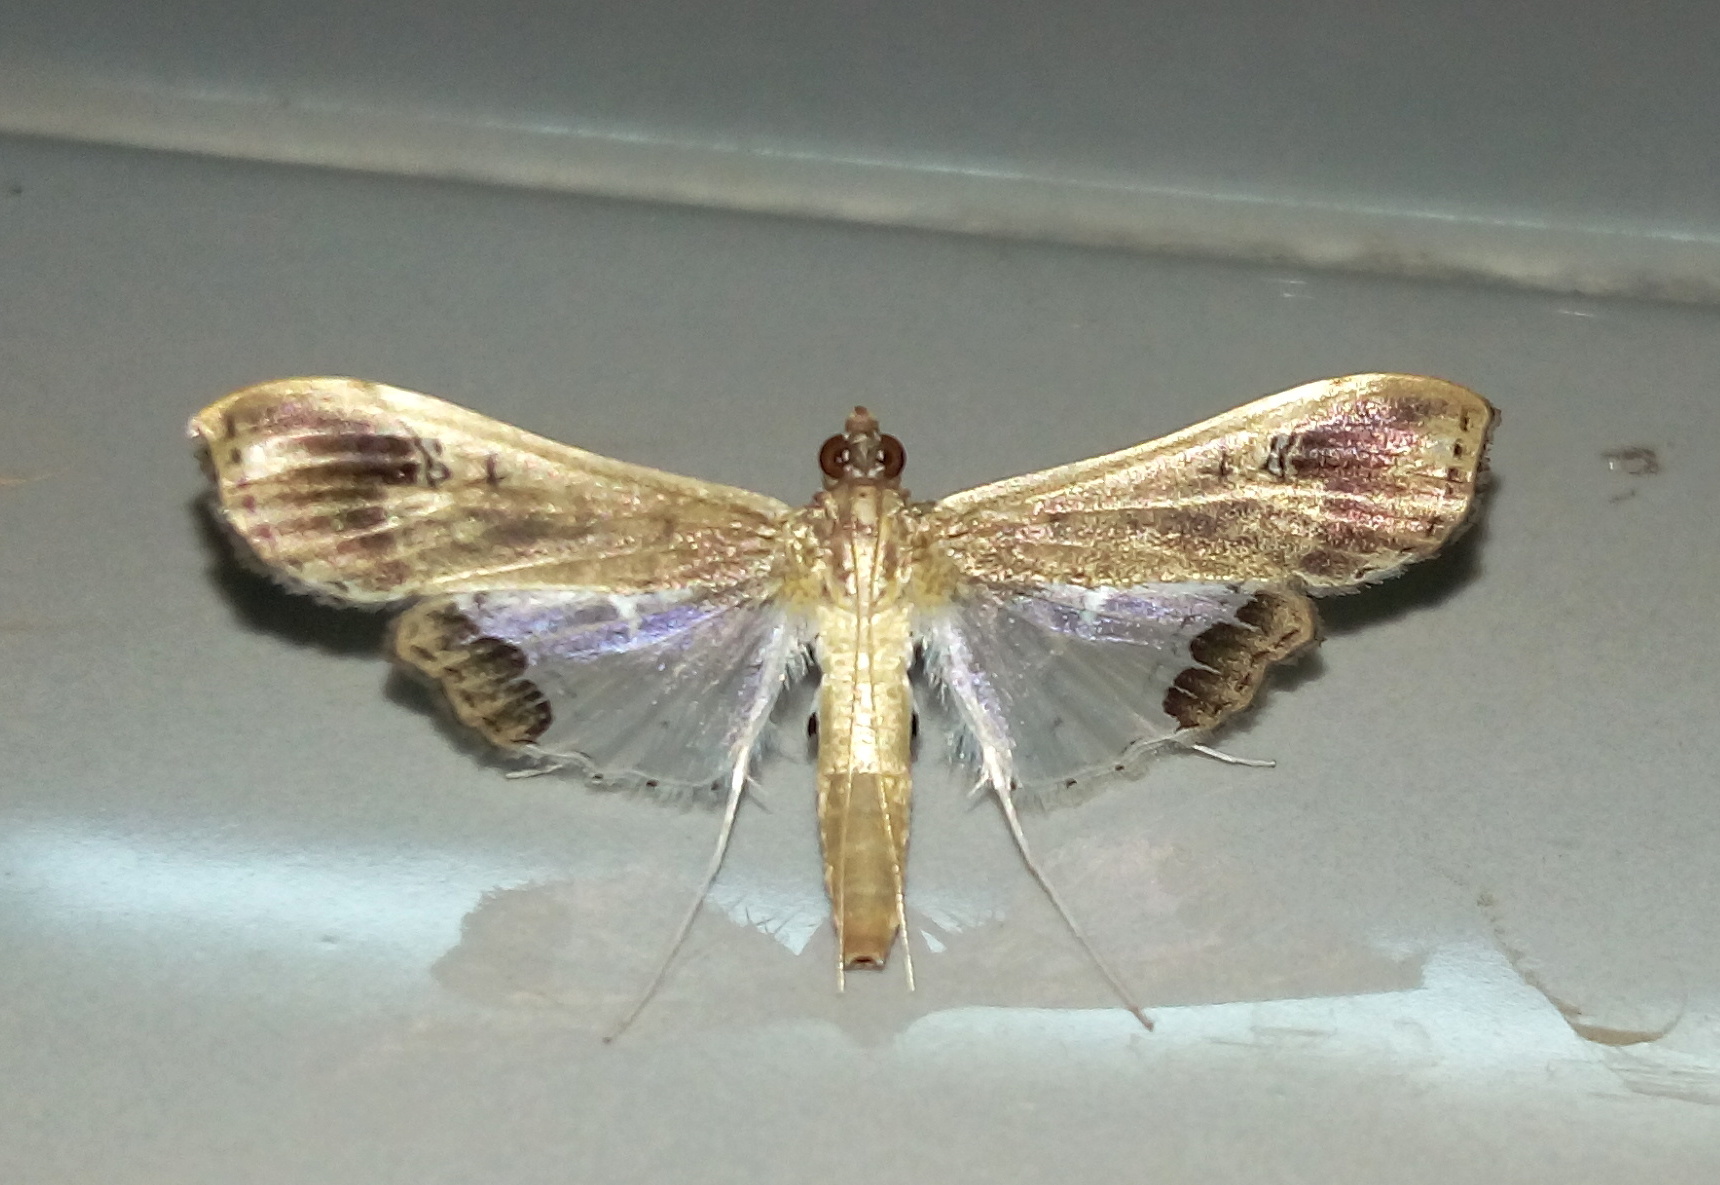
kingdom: Animalia
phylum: Arthropoda
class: Insecta
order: Lepidoptera
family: Crambidae
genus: Maruca
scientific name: Maruca amboinalis
